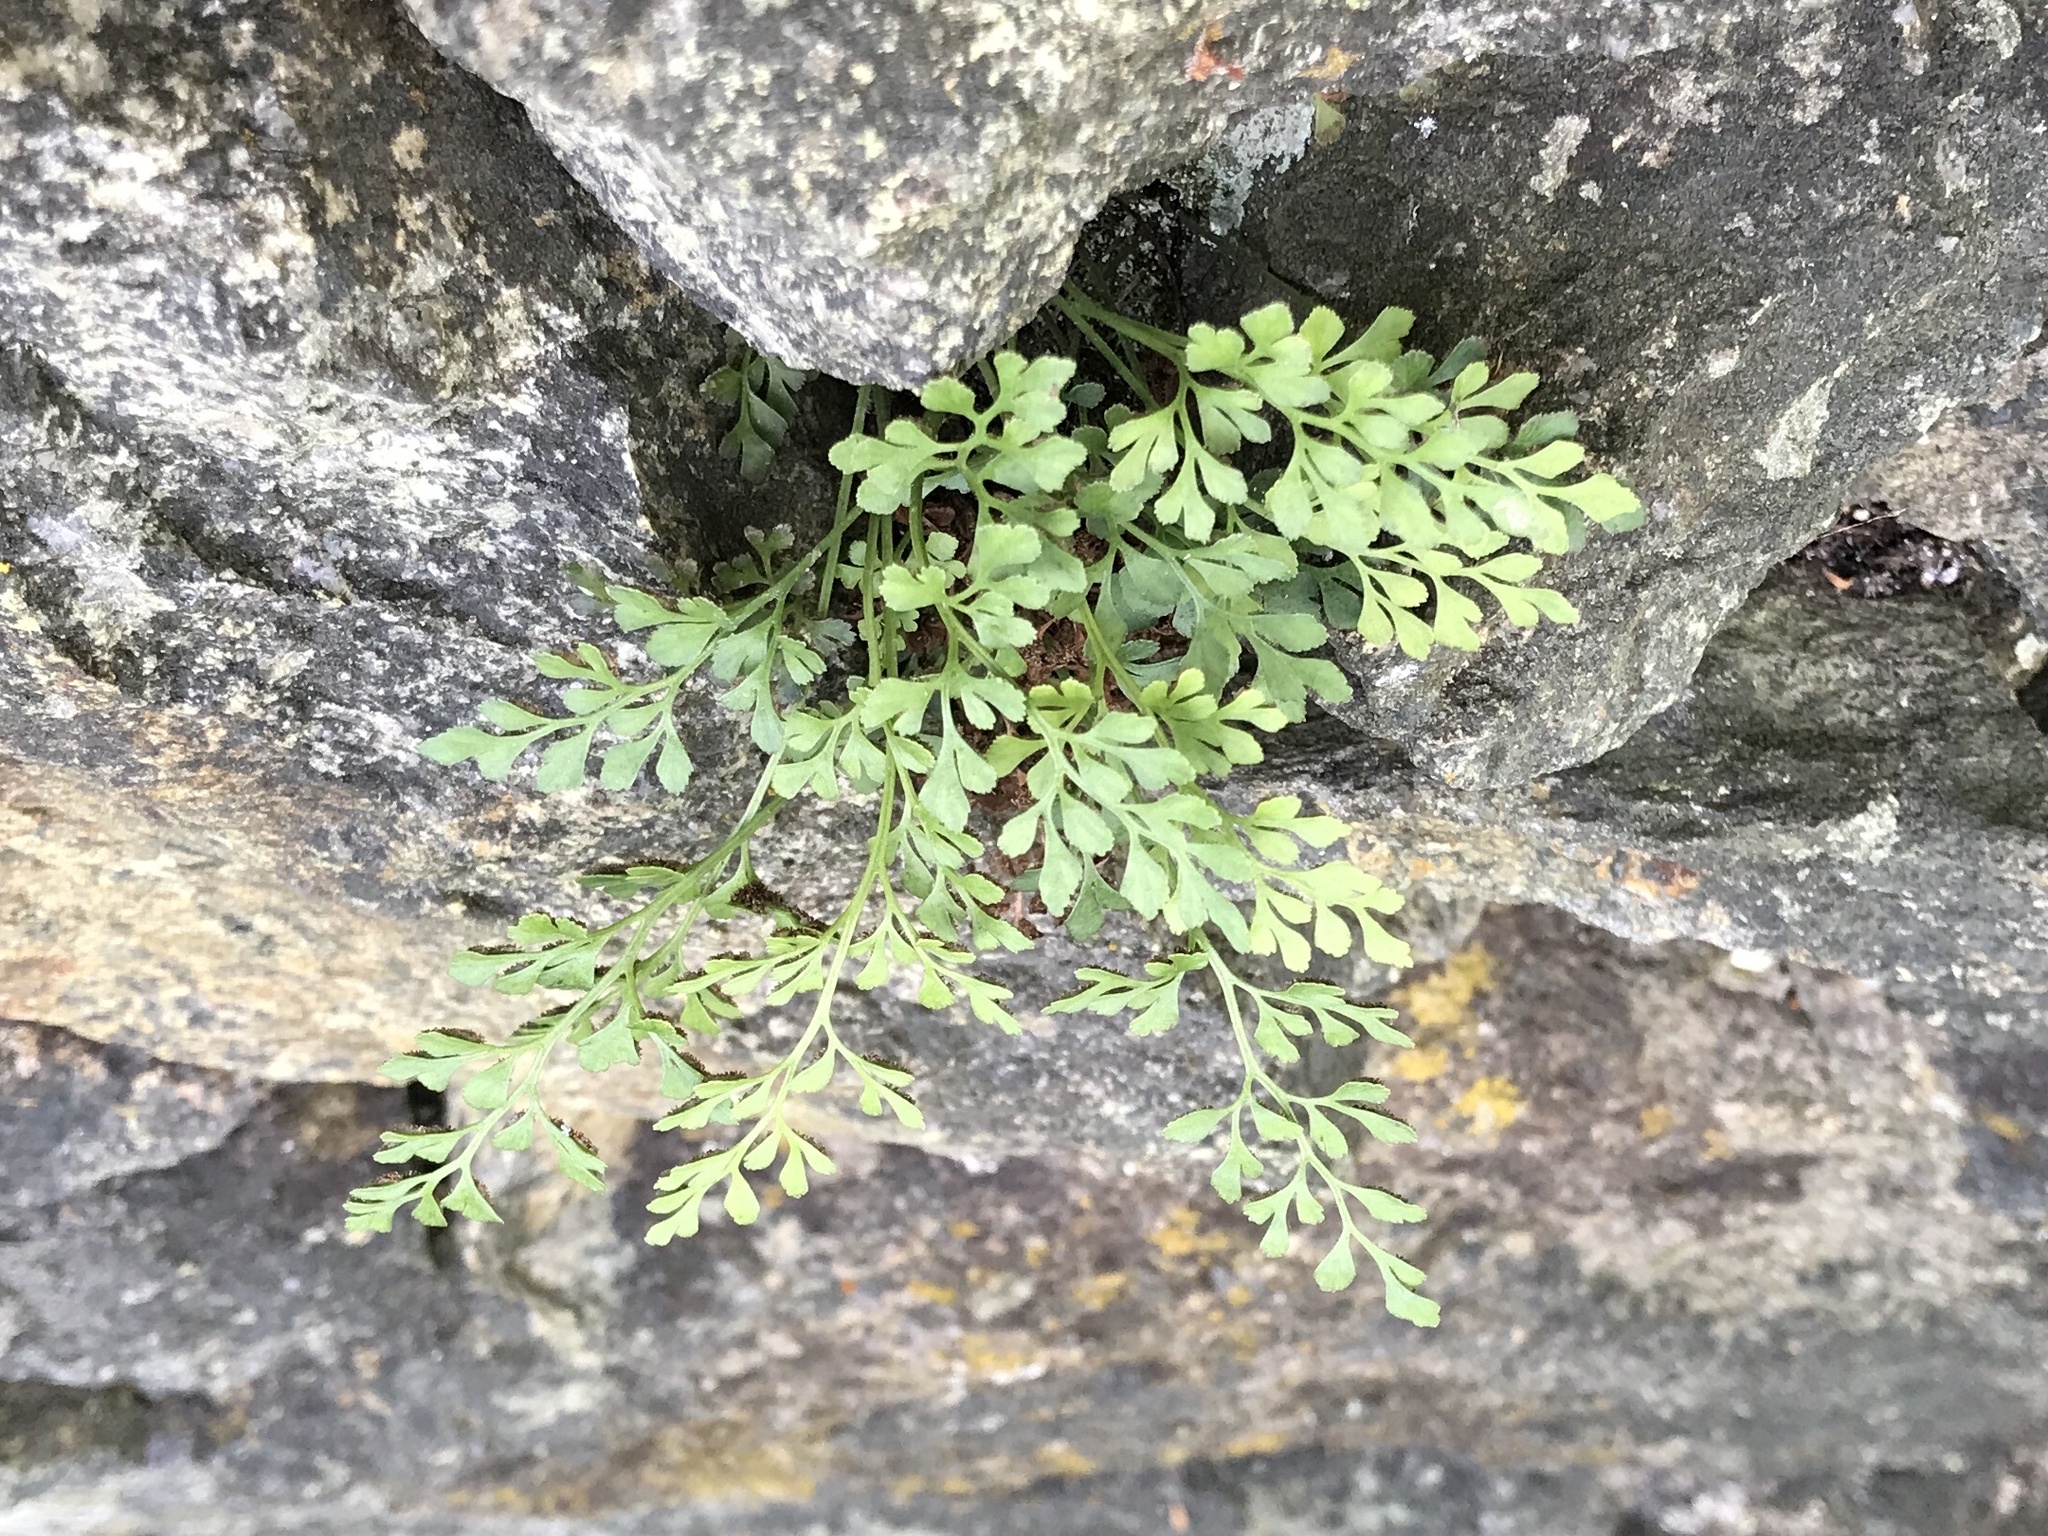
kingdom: Plantae
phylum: Tracheophyta
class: Polypodiopsida
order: Polypodiales
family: Aspleniaceae
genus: Asplenium
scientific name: Asplenium ruta-muraria
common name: Wall-rue
